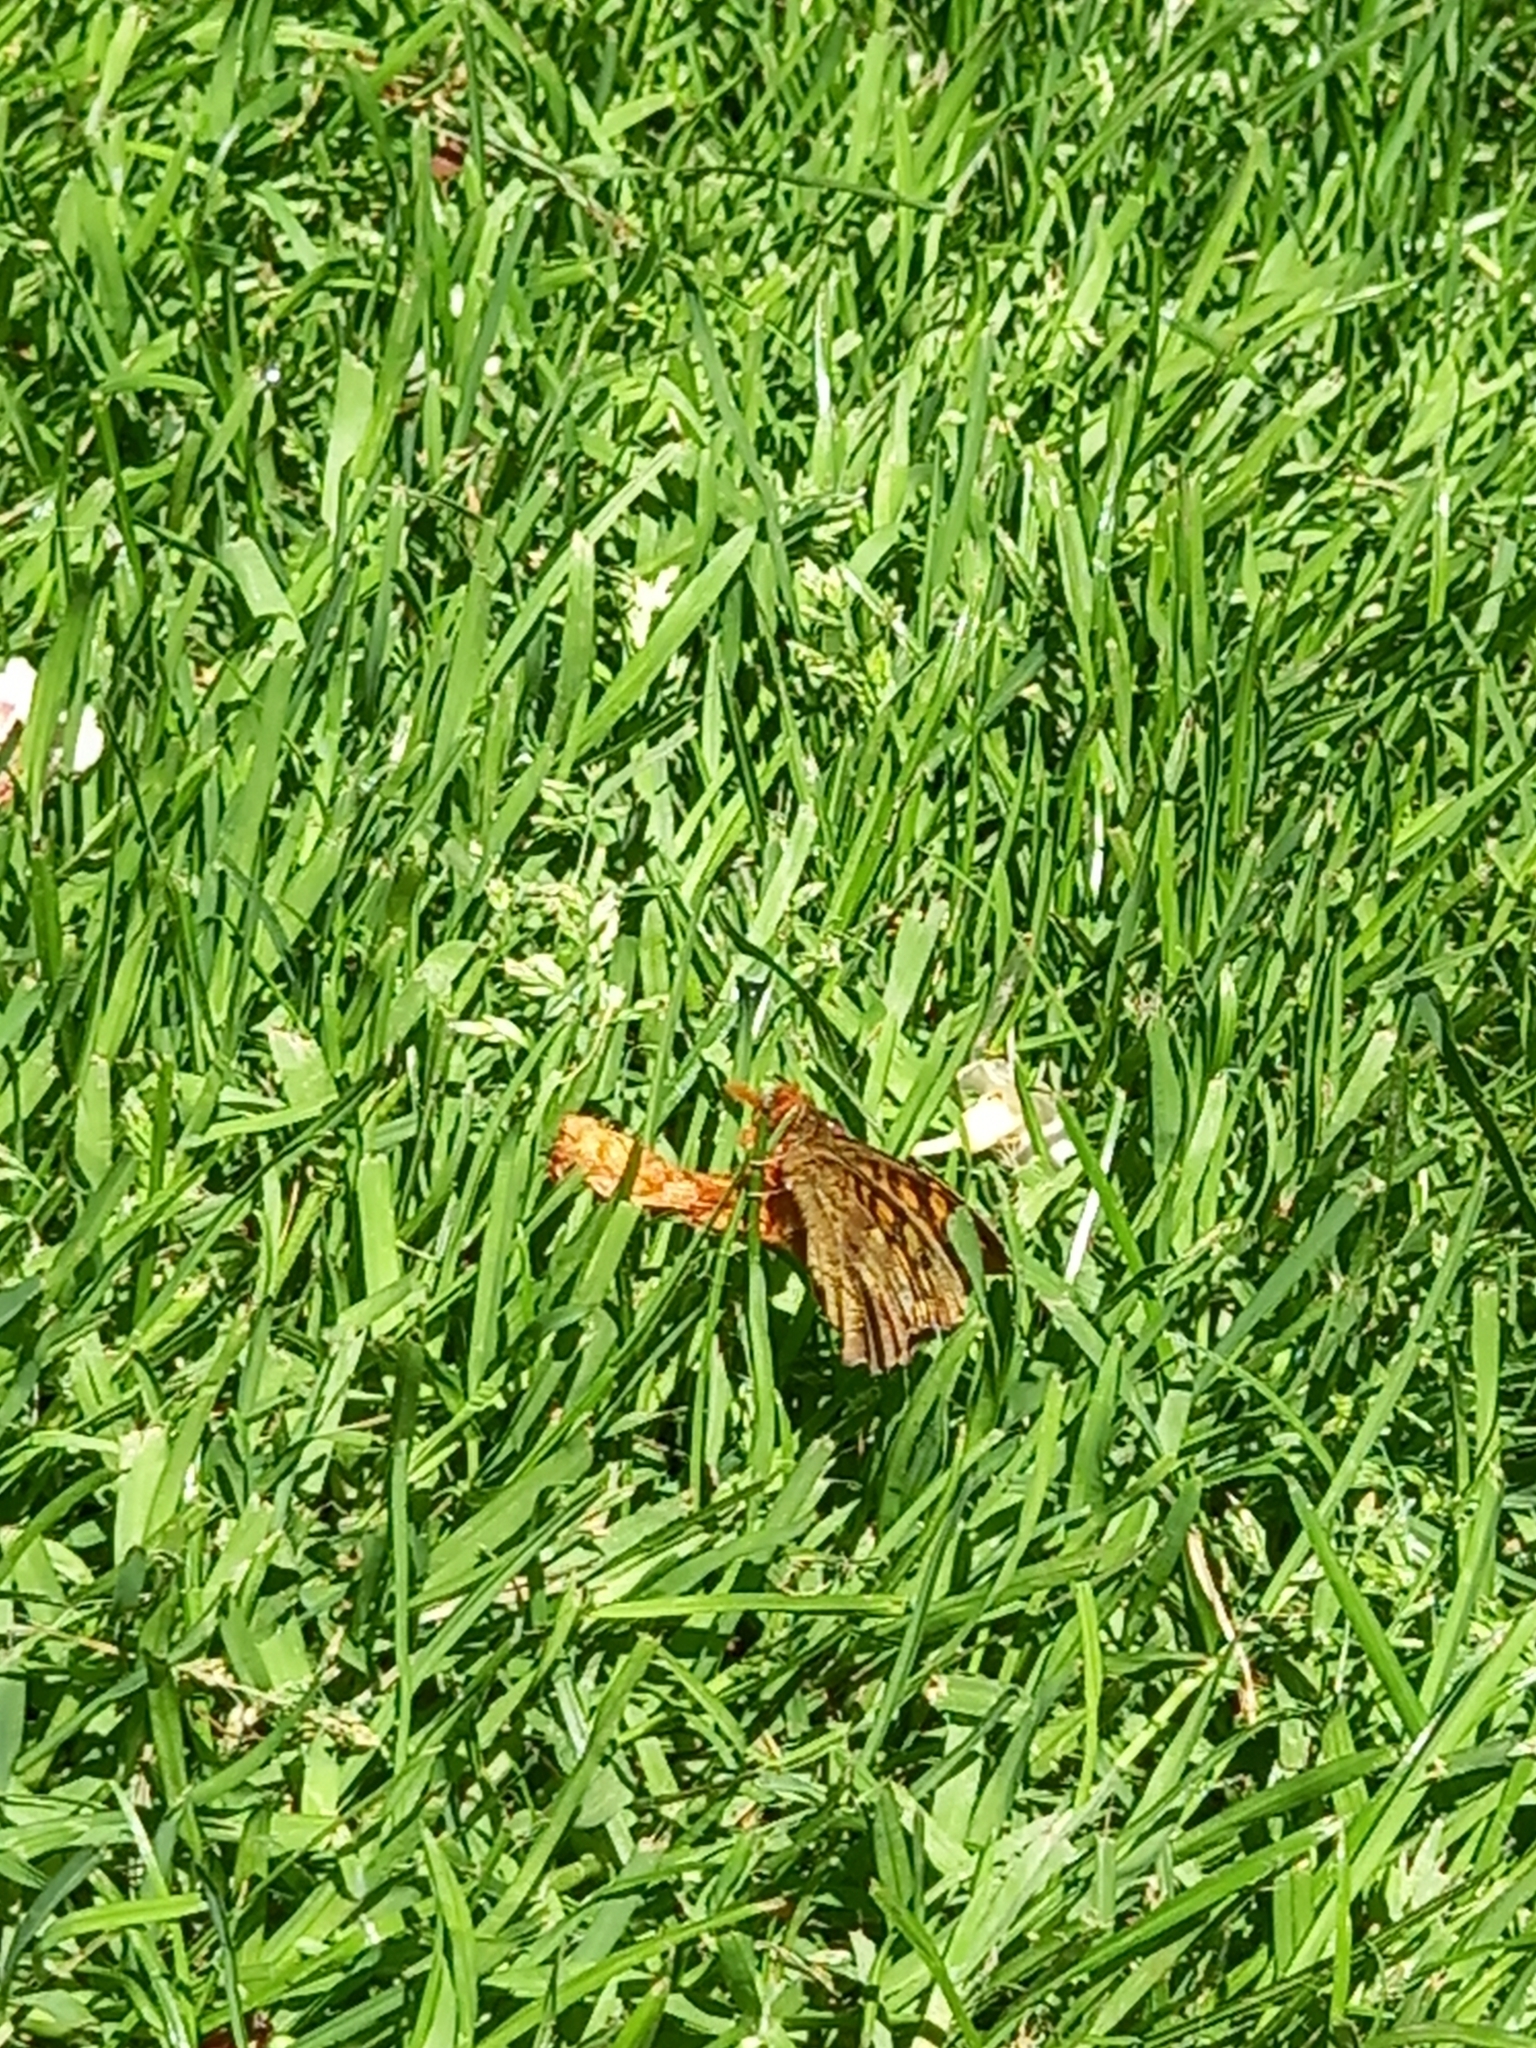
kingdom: Animalia
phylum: Arthropoda
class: Insecta
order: Lepidoptera
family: Nymphalidae
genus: Pararge
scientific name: Pararge aegeria
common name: Speckled wood
